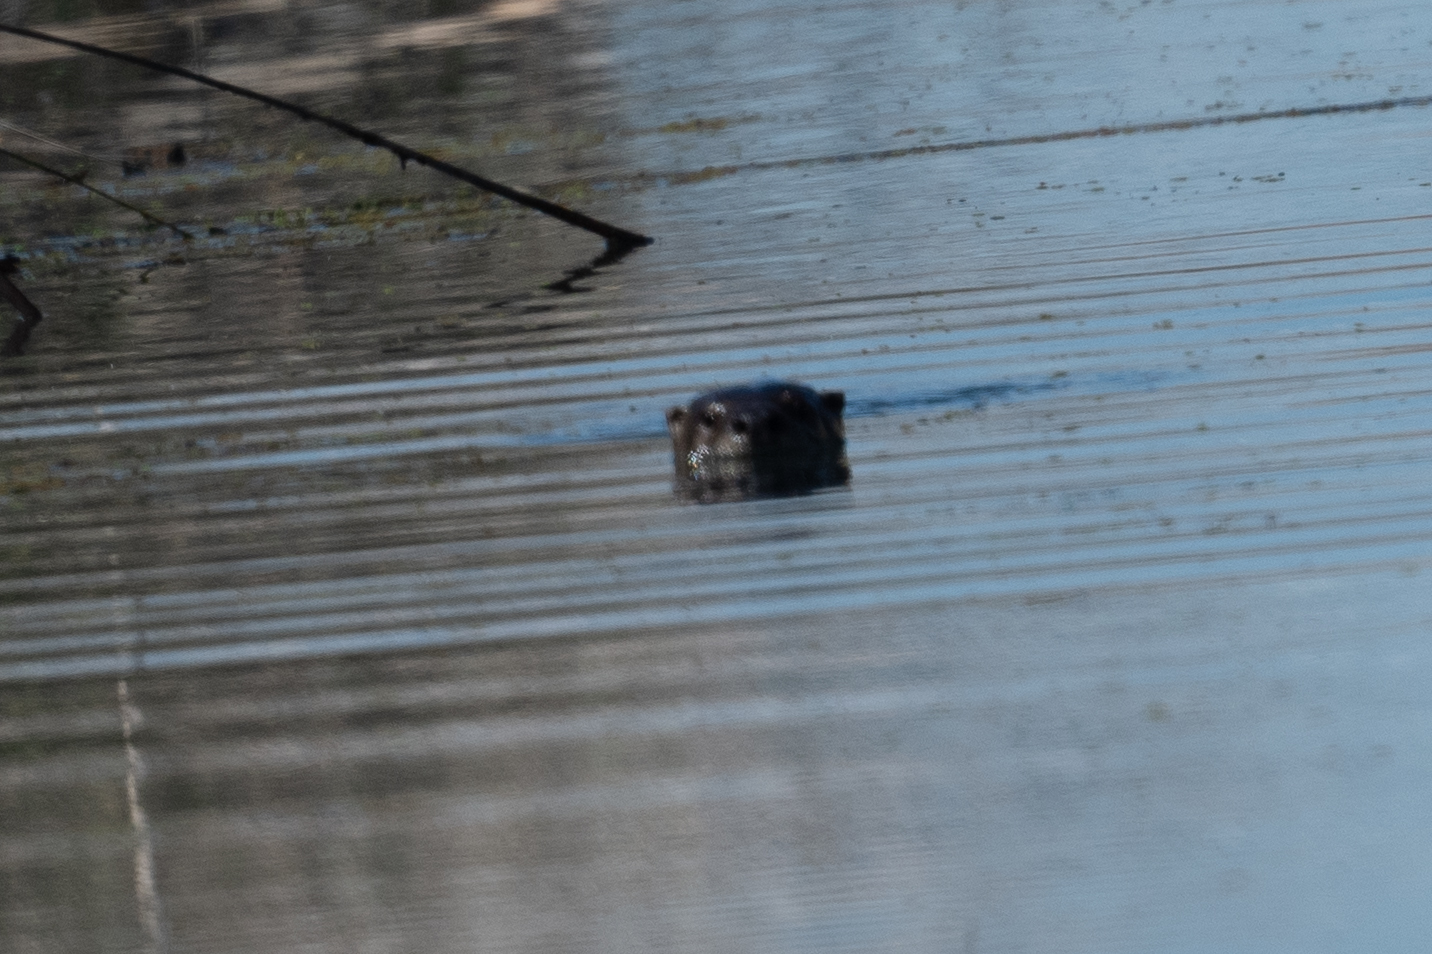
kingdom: Animalia
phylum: Chordata
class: Mammalia
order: Carnivora
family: Mustelidae
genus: Lontra
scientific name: Lontra canadensis
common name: North american river otter
